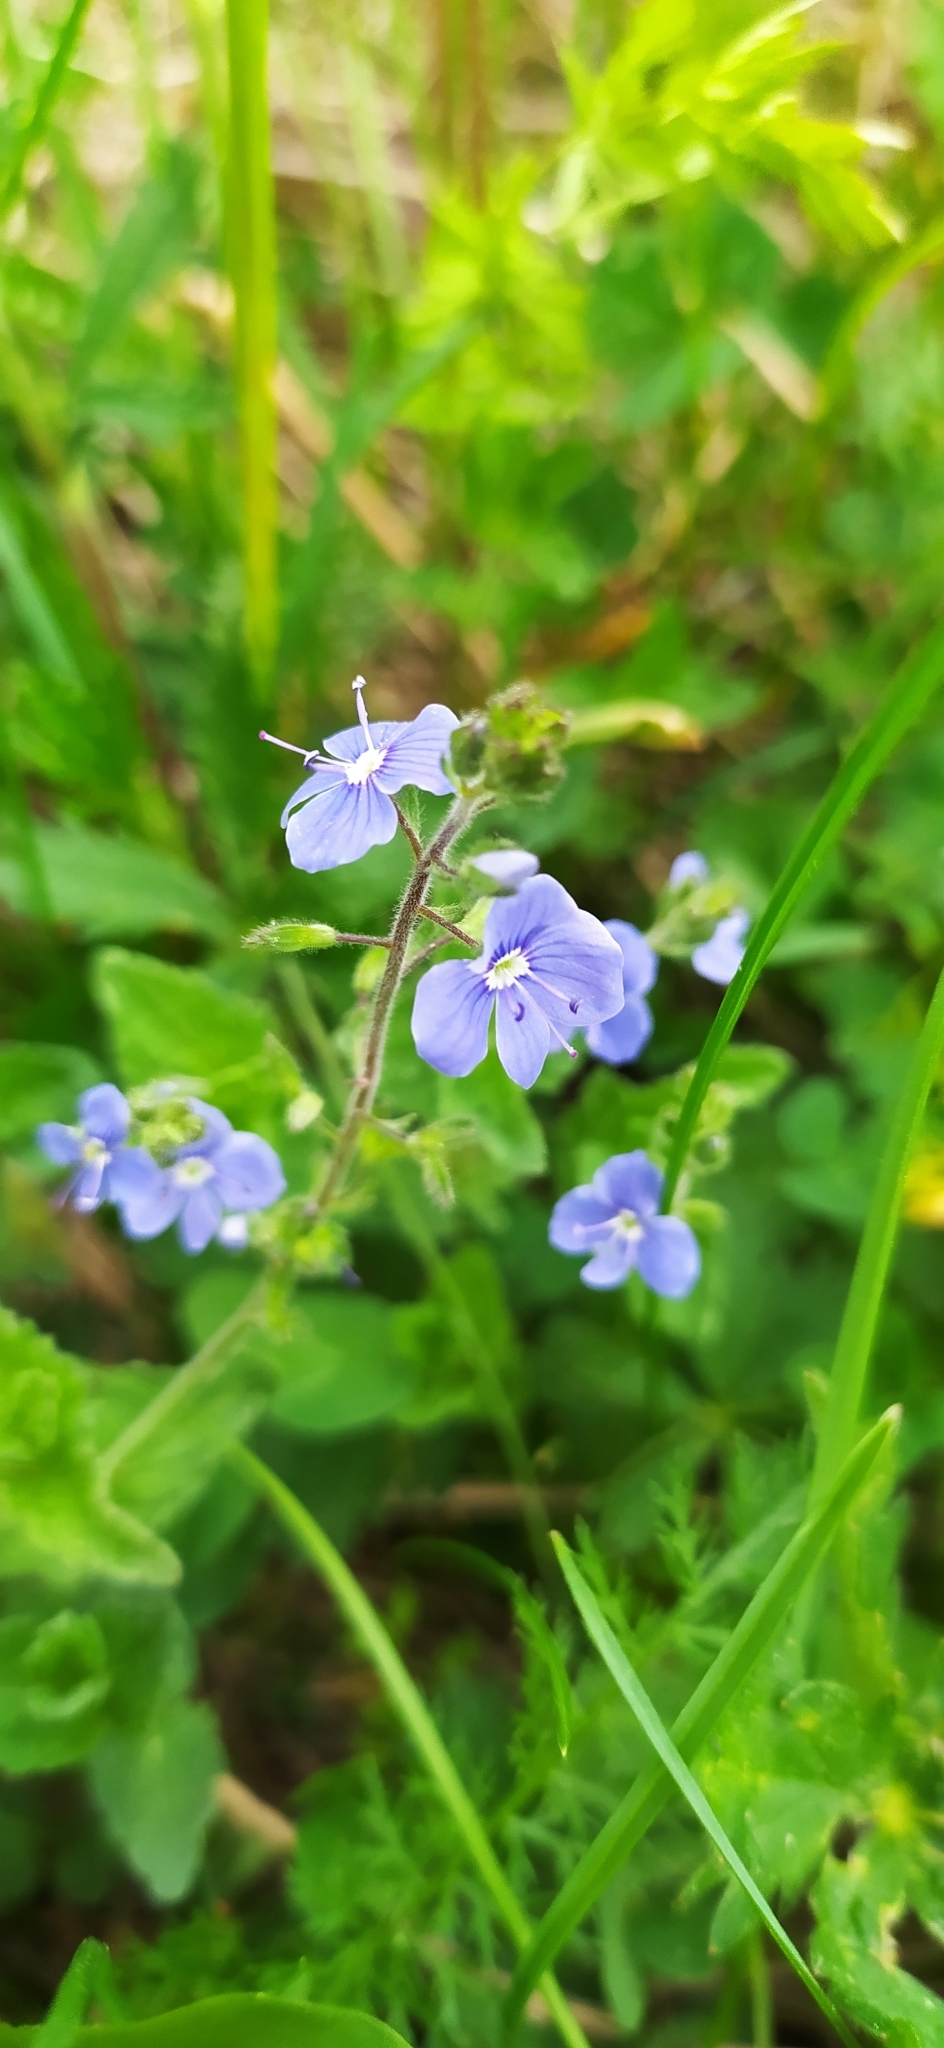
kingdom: Plantae
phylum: Tracheophyta
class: Magnoliopsida
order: Lamiales
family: Plantaginaceae
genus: Veronica
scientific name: Veronica chamaedrys
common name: Germander speedwell
